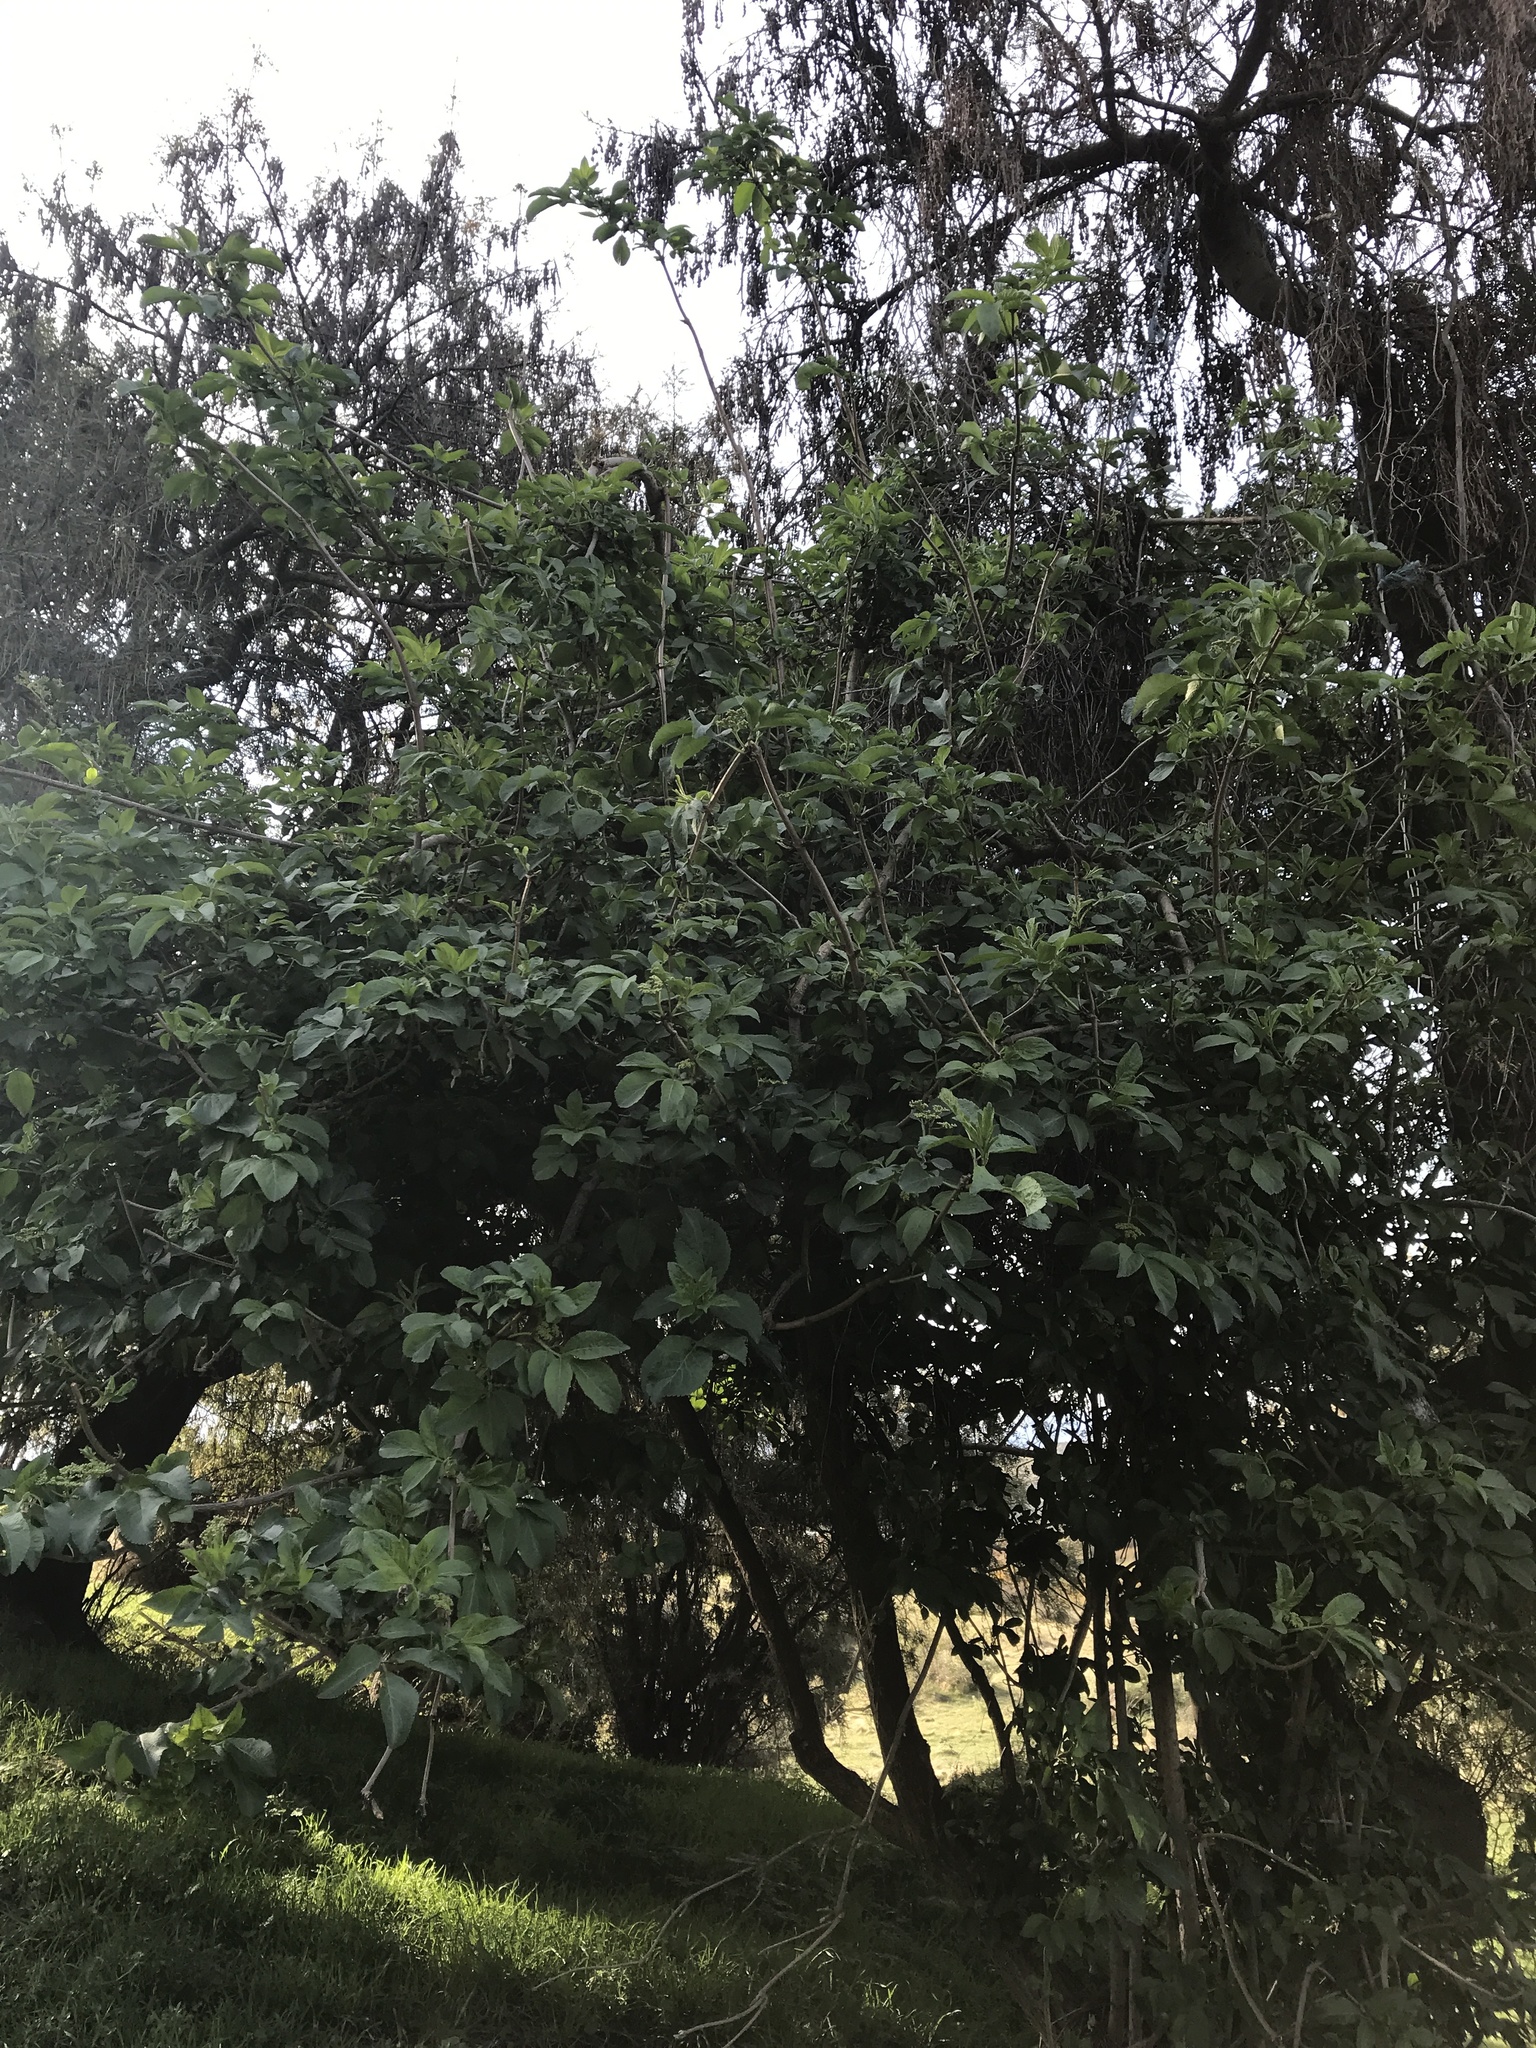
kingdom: Plantae
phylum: Tracheophyta
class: Magnoliopsida
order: Dipsacales
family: Viburnaceae
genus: Sambucus
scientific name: Sambucus nigra
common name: Elder
